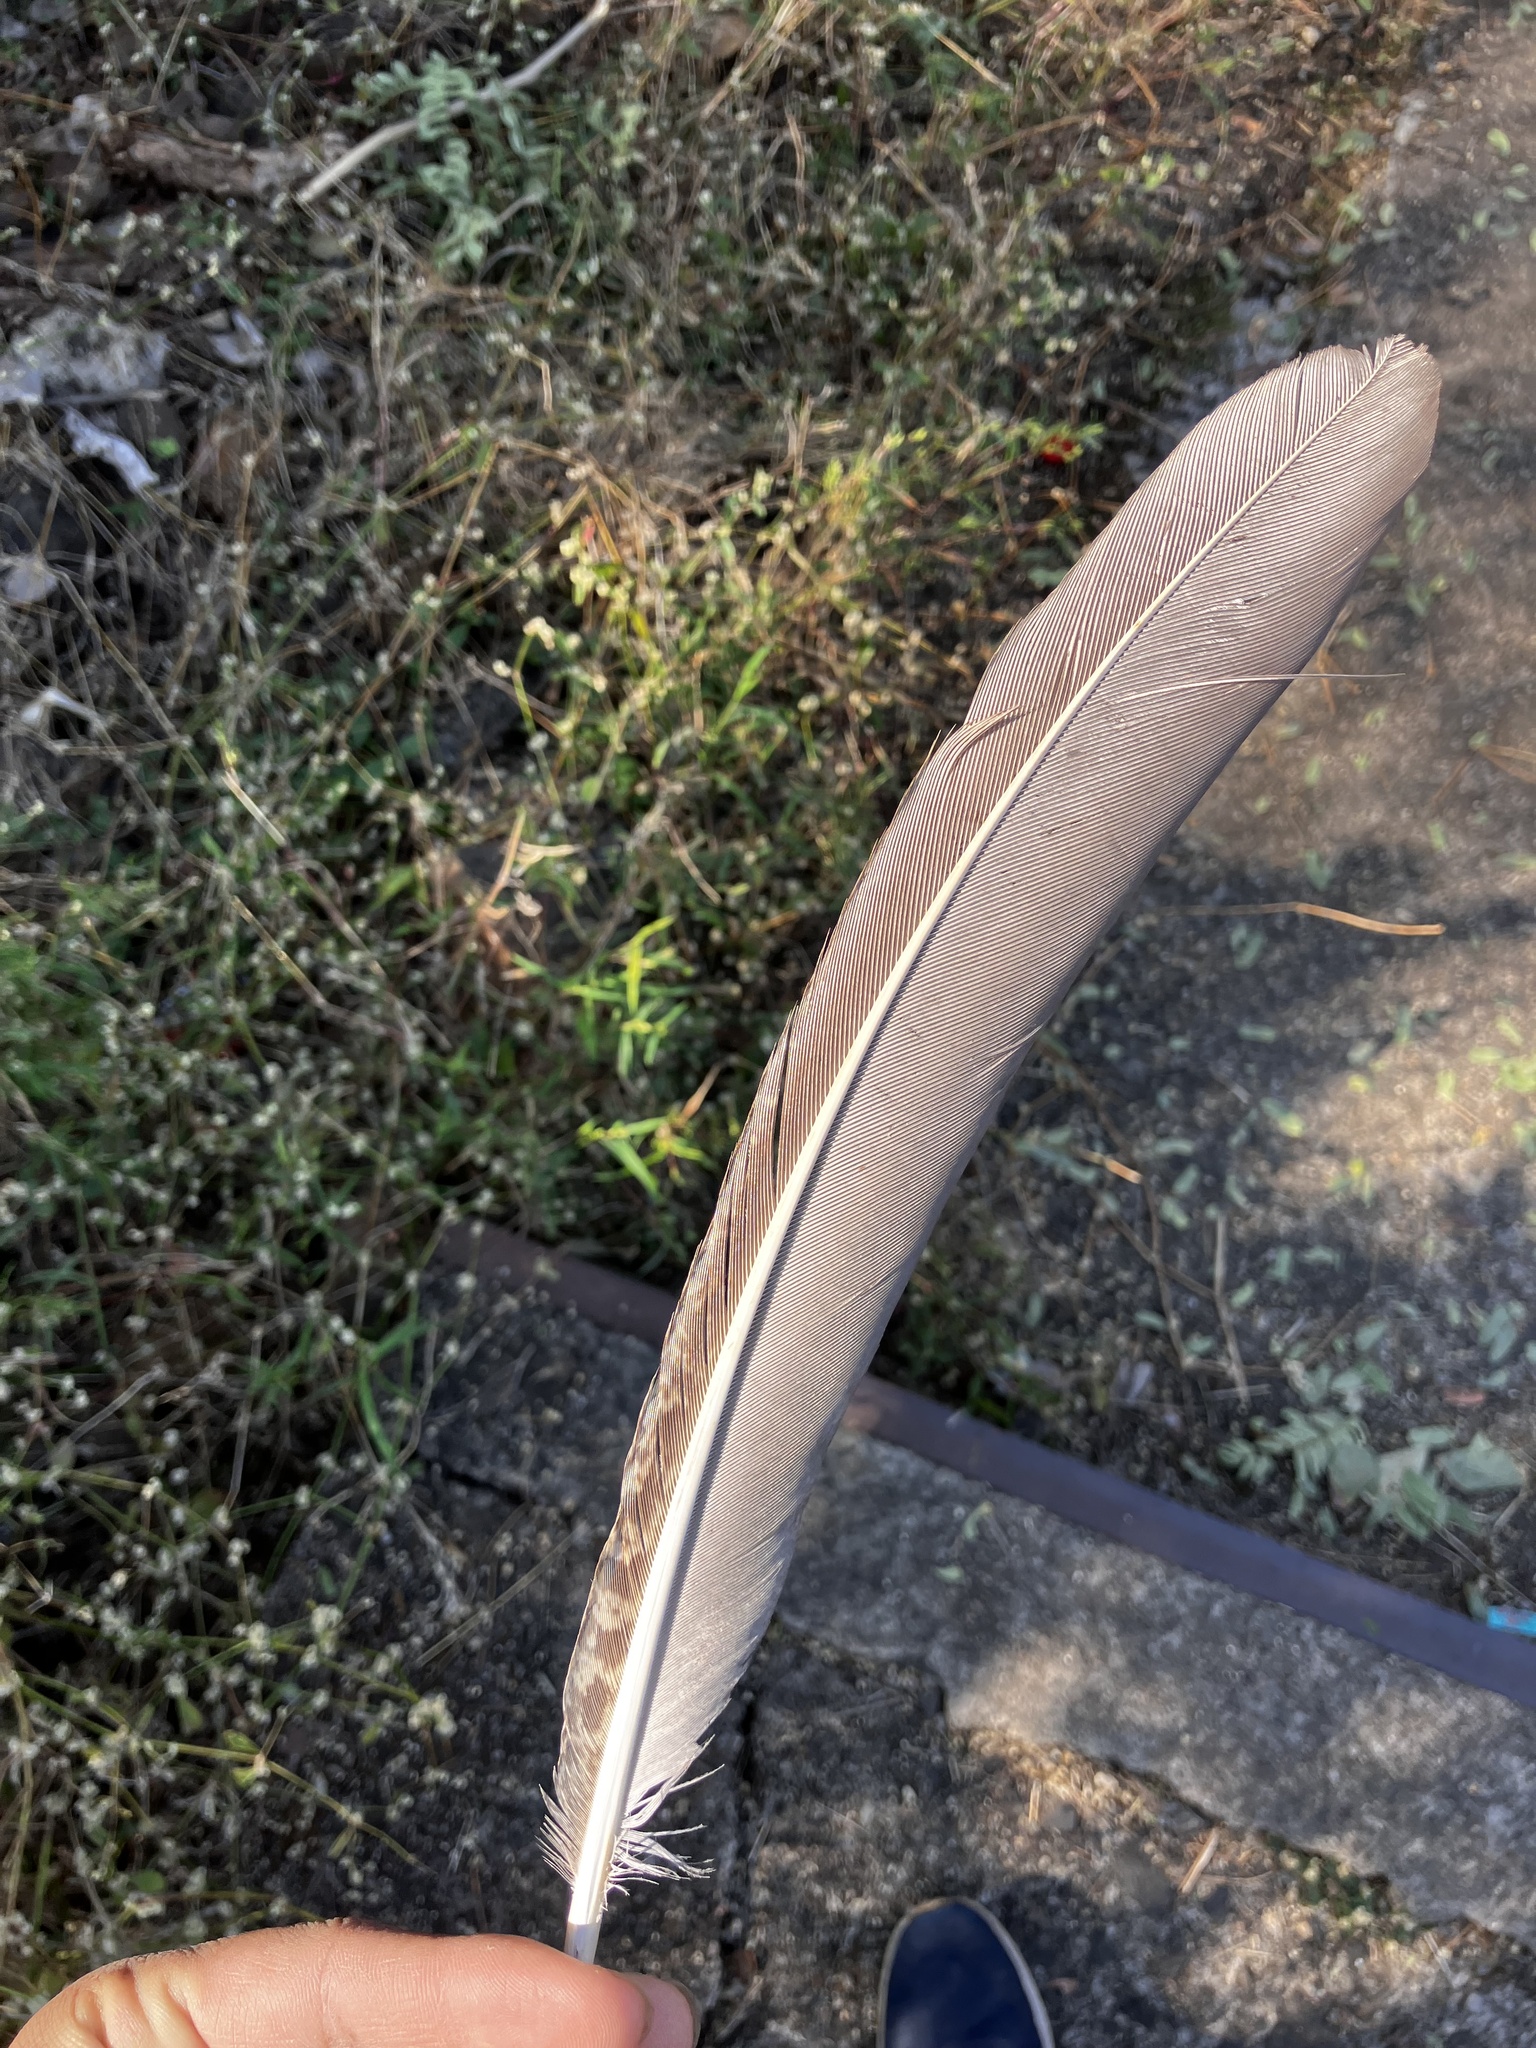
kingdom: Animalia
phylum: Chordata
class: Aves
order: Galliformes
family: Phasianidae
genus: Pavo
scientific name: Pavo cristatus
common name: Indian peafowl
